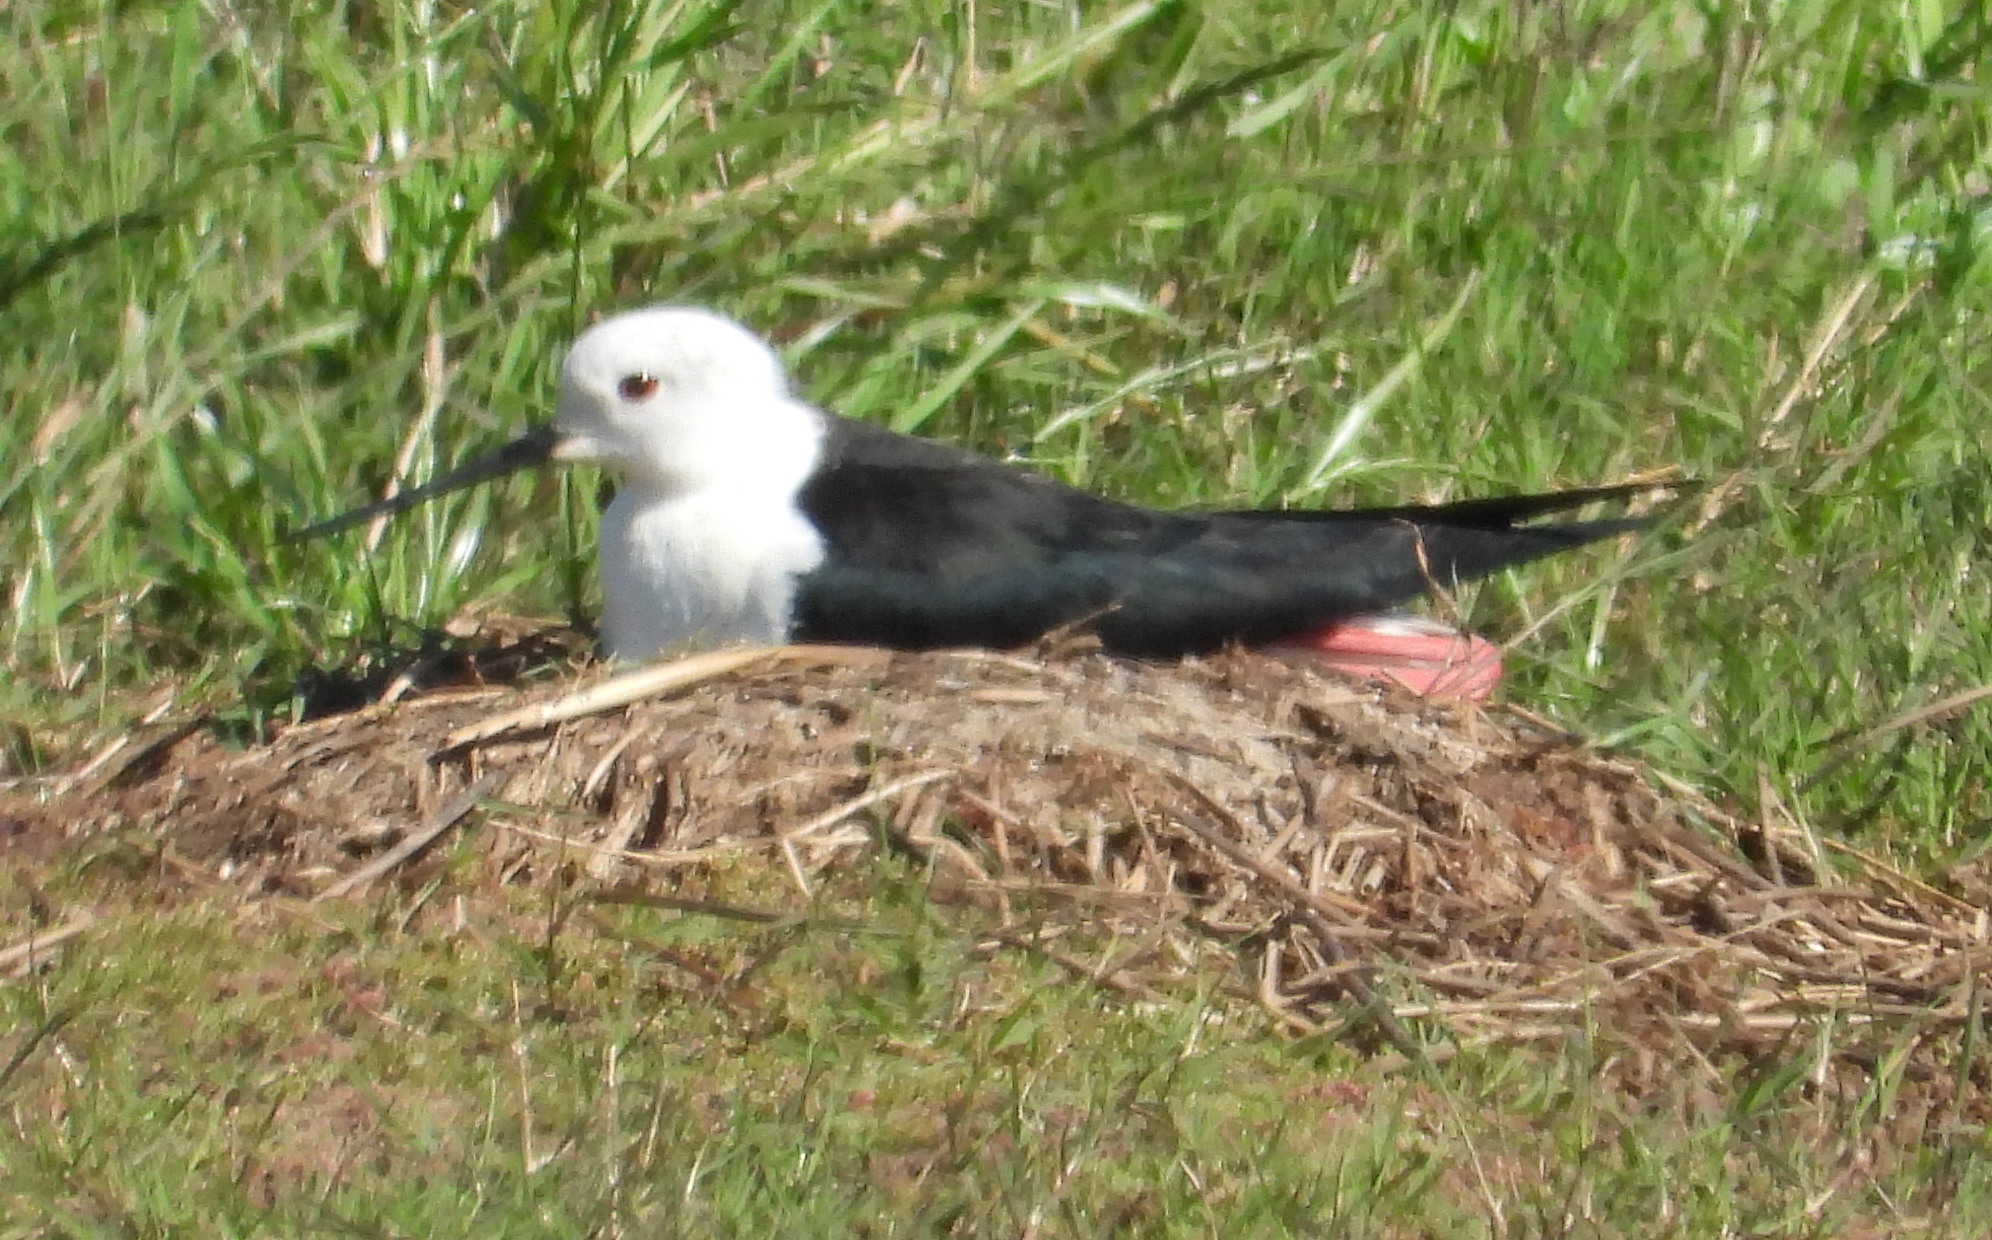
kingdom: Animalia
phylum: Chordata
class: Aves
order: Charadriiformes
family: Recurvirostridae
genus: Himantopus
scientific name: Himantopus himantopus
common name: Black-winged stilt
